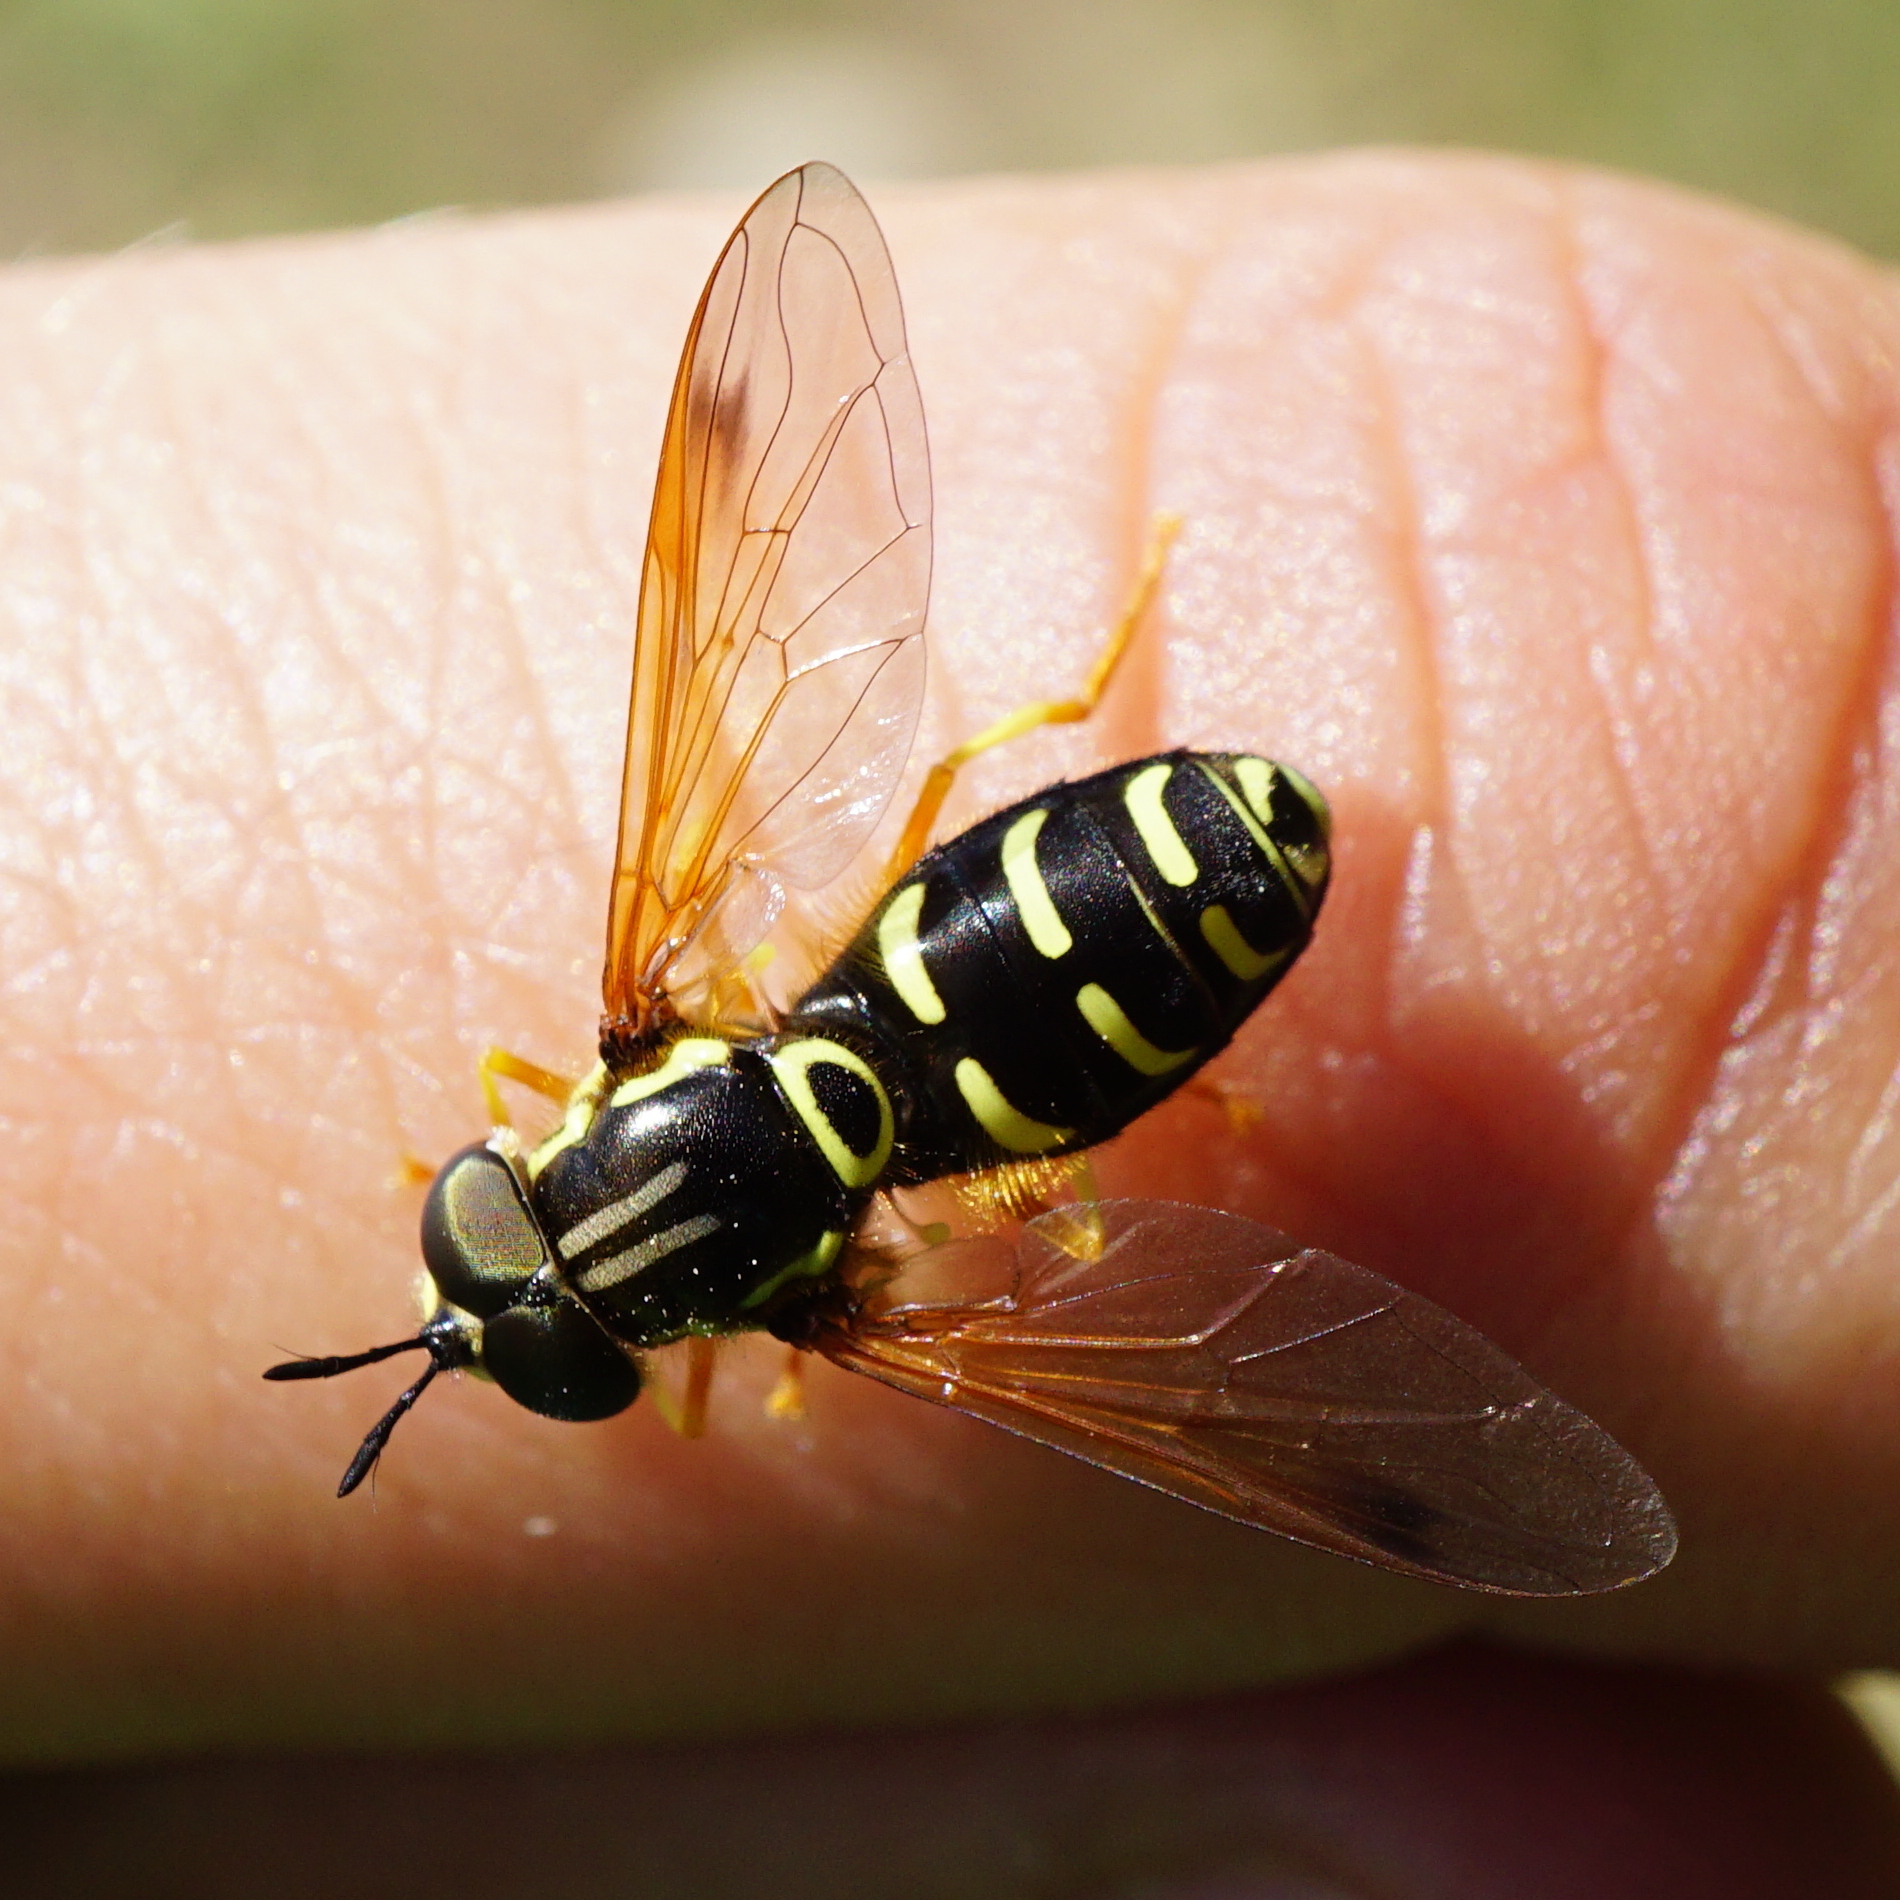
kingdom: Animalia
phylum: Arthropoda
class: Insecta
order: Diptera
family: Syrphidae
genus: Chrysotoxum
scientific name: Chrysotoxum festivum
